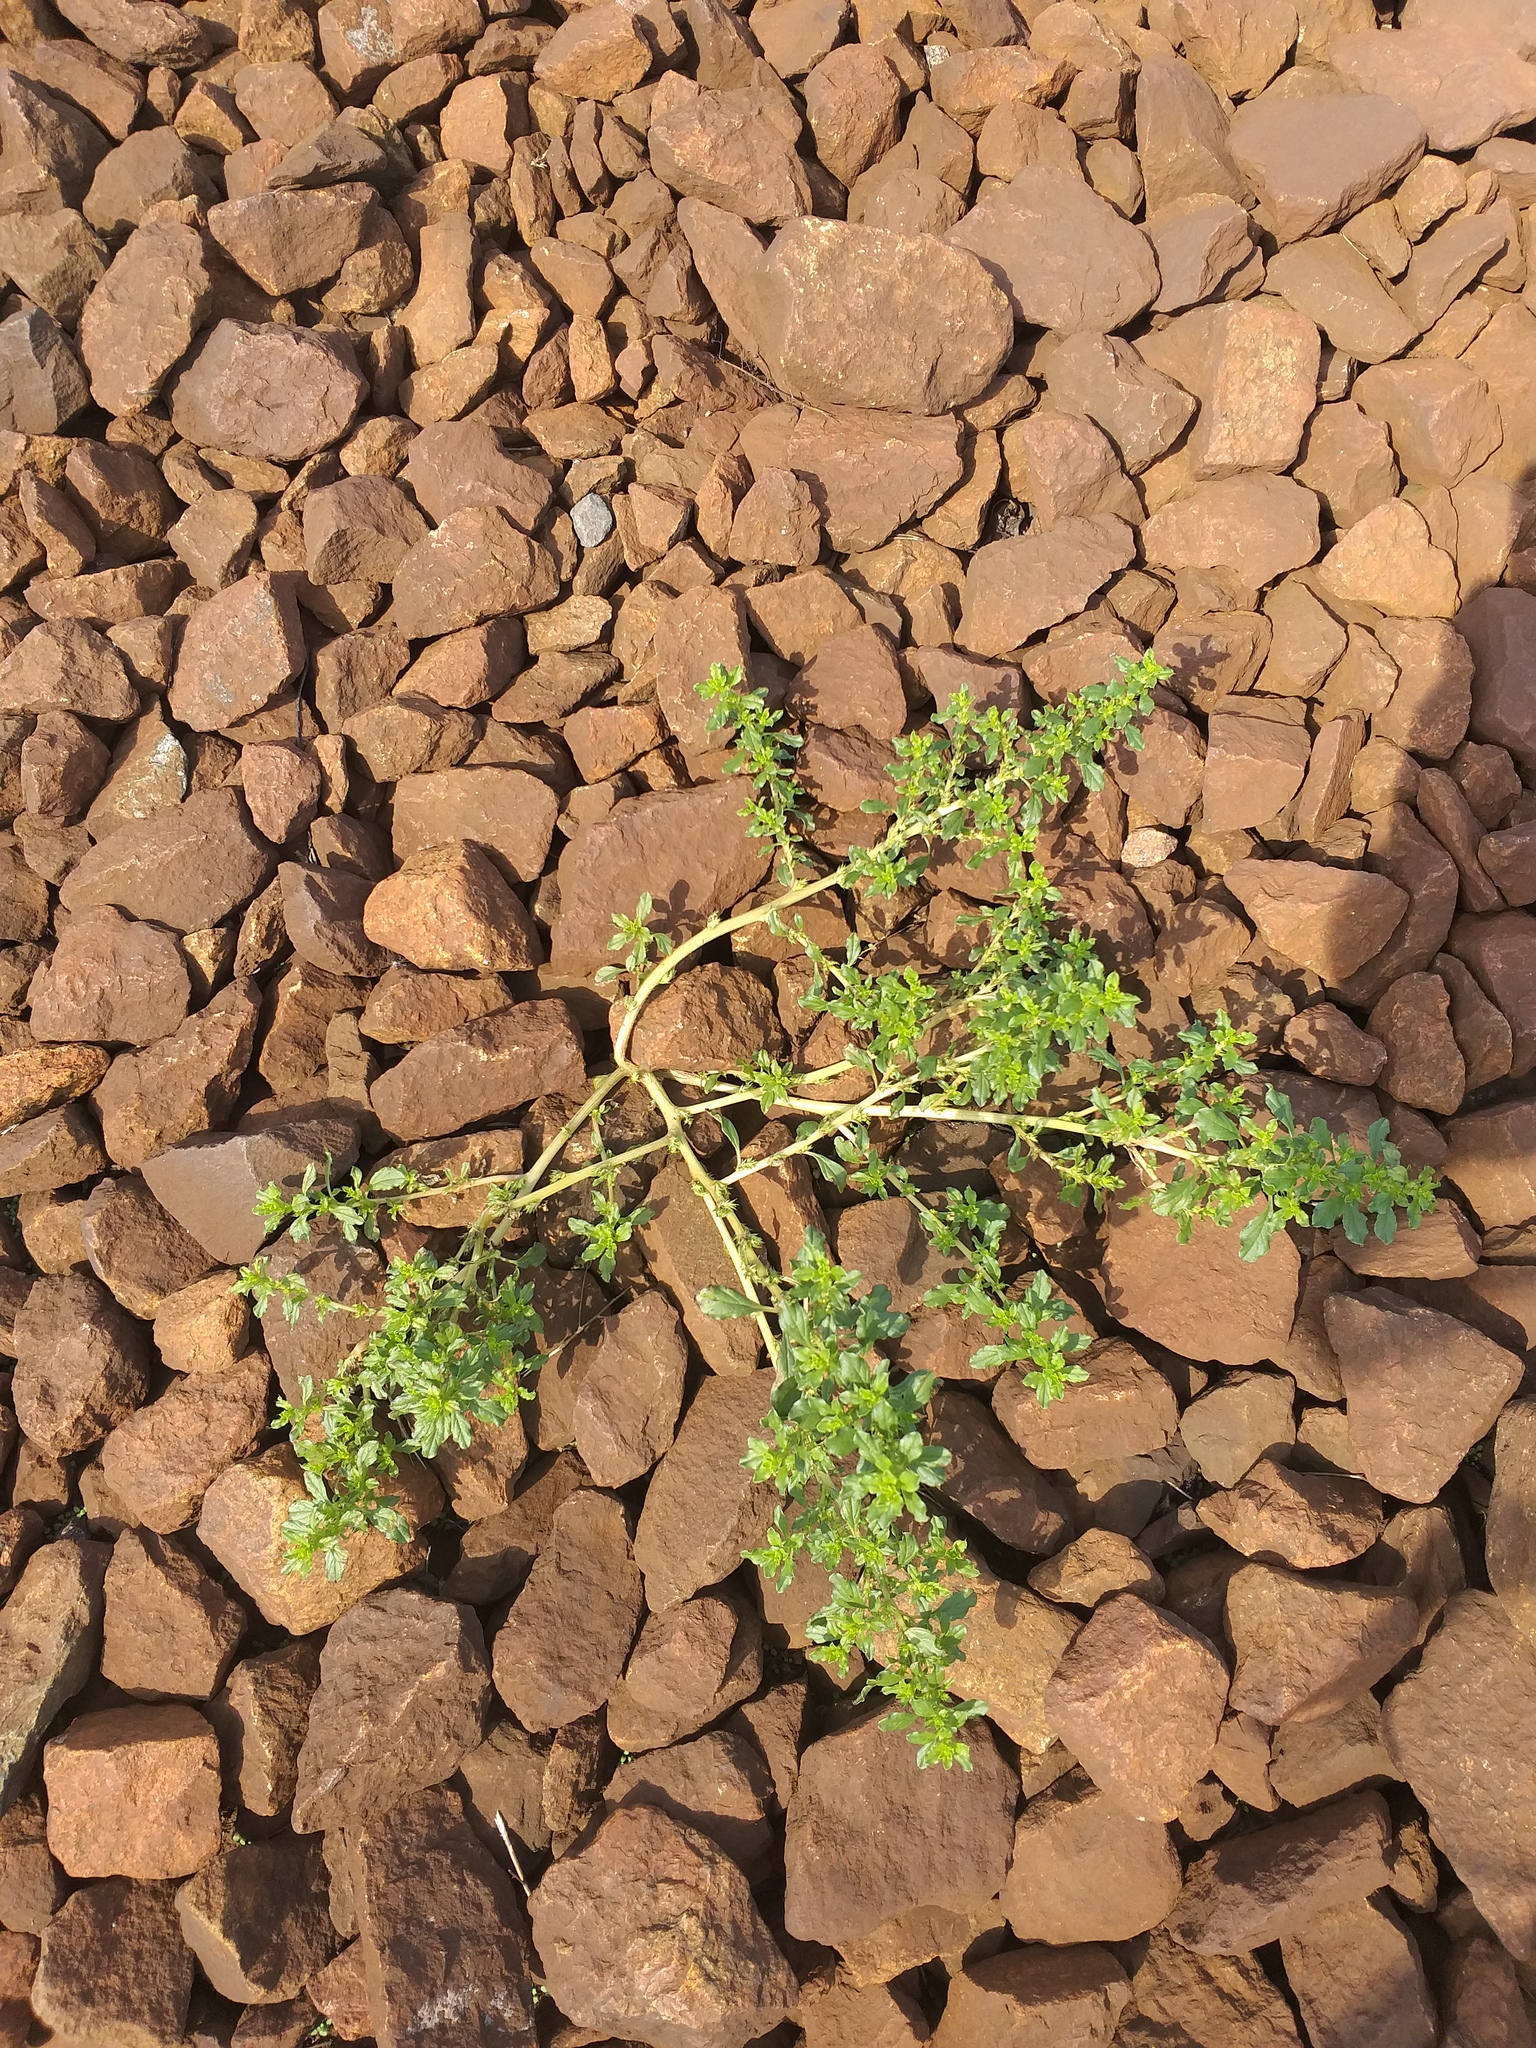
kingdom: Plantae
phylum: Tracheophyta
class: Magnoliopsida
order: Caryophyllales
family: Amaranthaceae
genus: Amaranthus
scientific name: Amaranthus albus
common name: White pigweed
